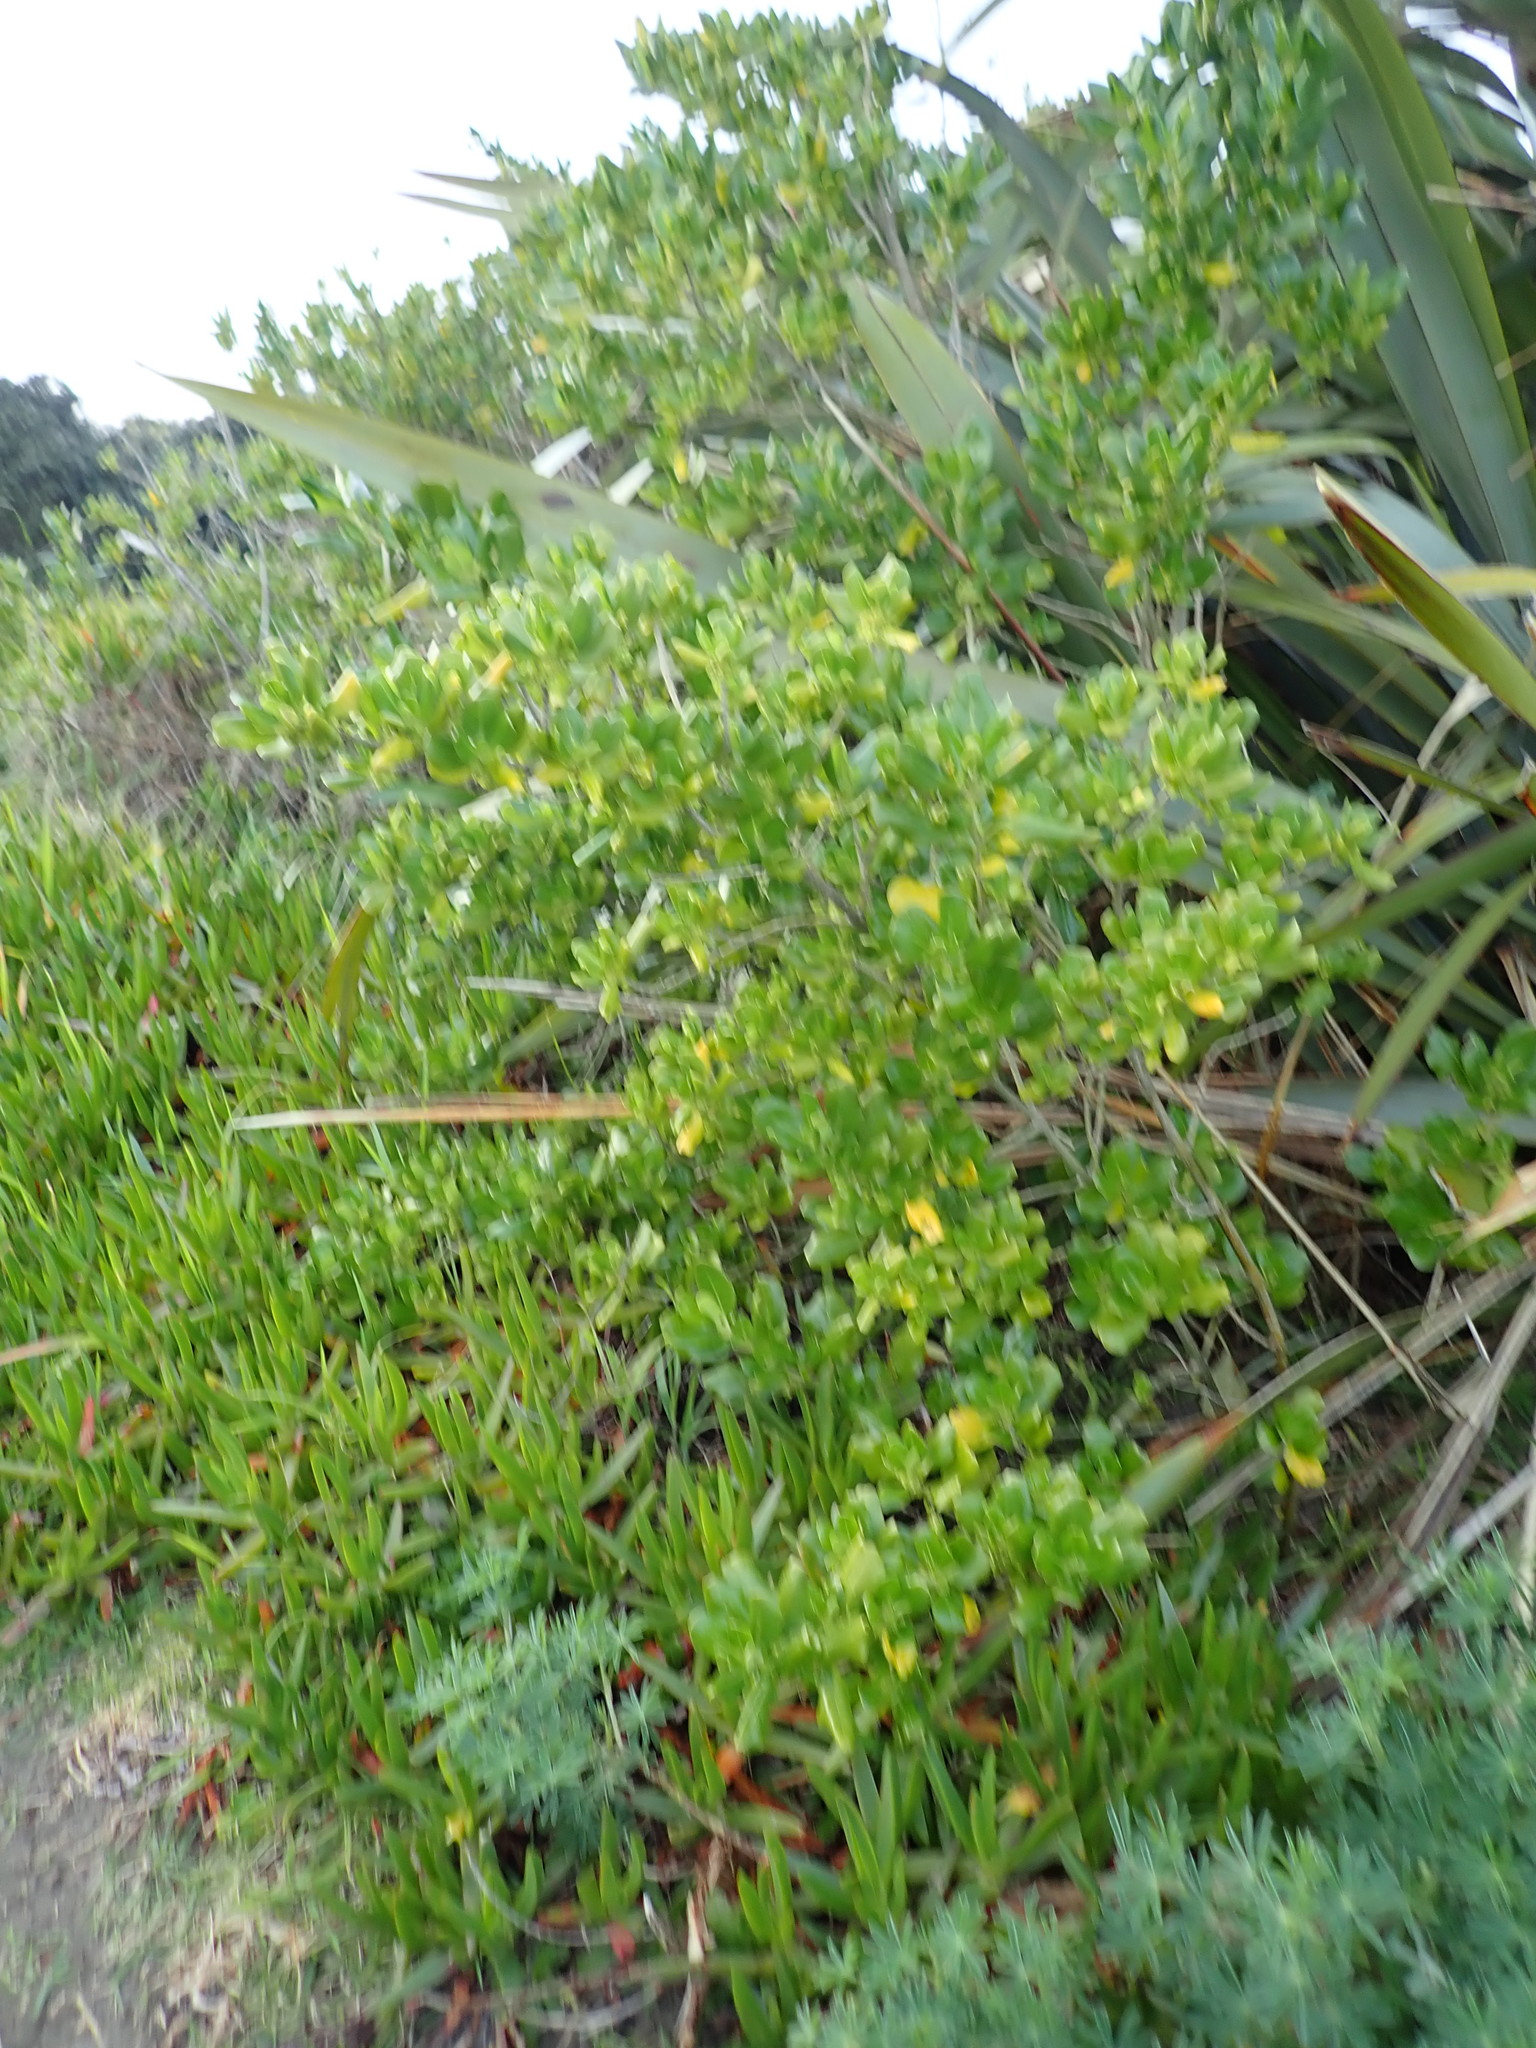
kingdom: Plantae
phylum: Tracheophyta
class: Magnoliopsida
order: Gentianales
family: Rubiaceae
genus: Coprosma
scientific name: Coprosma repens
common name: Tree bedstraw
